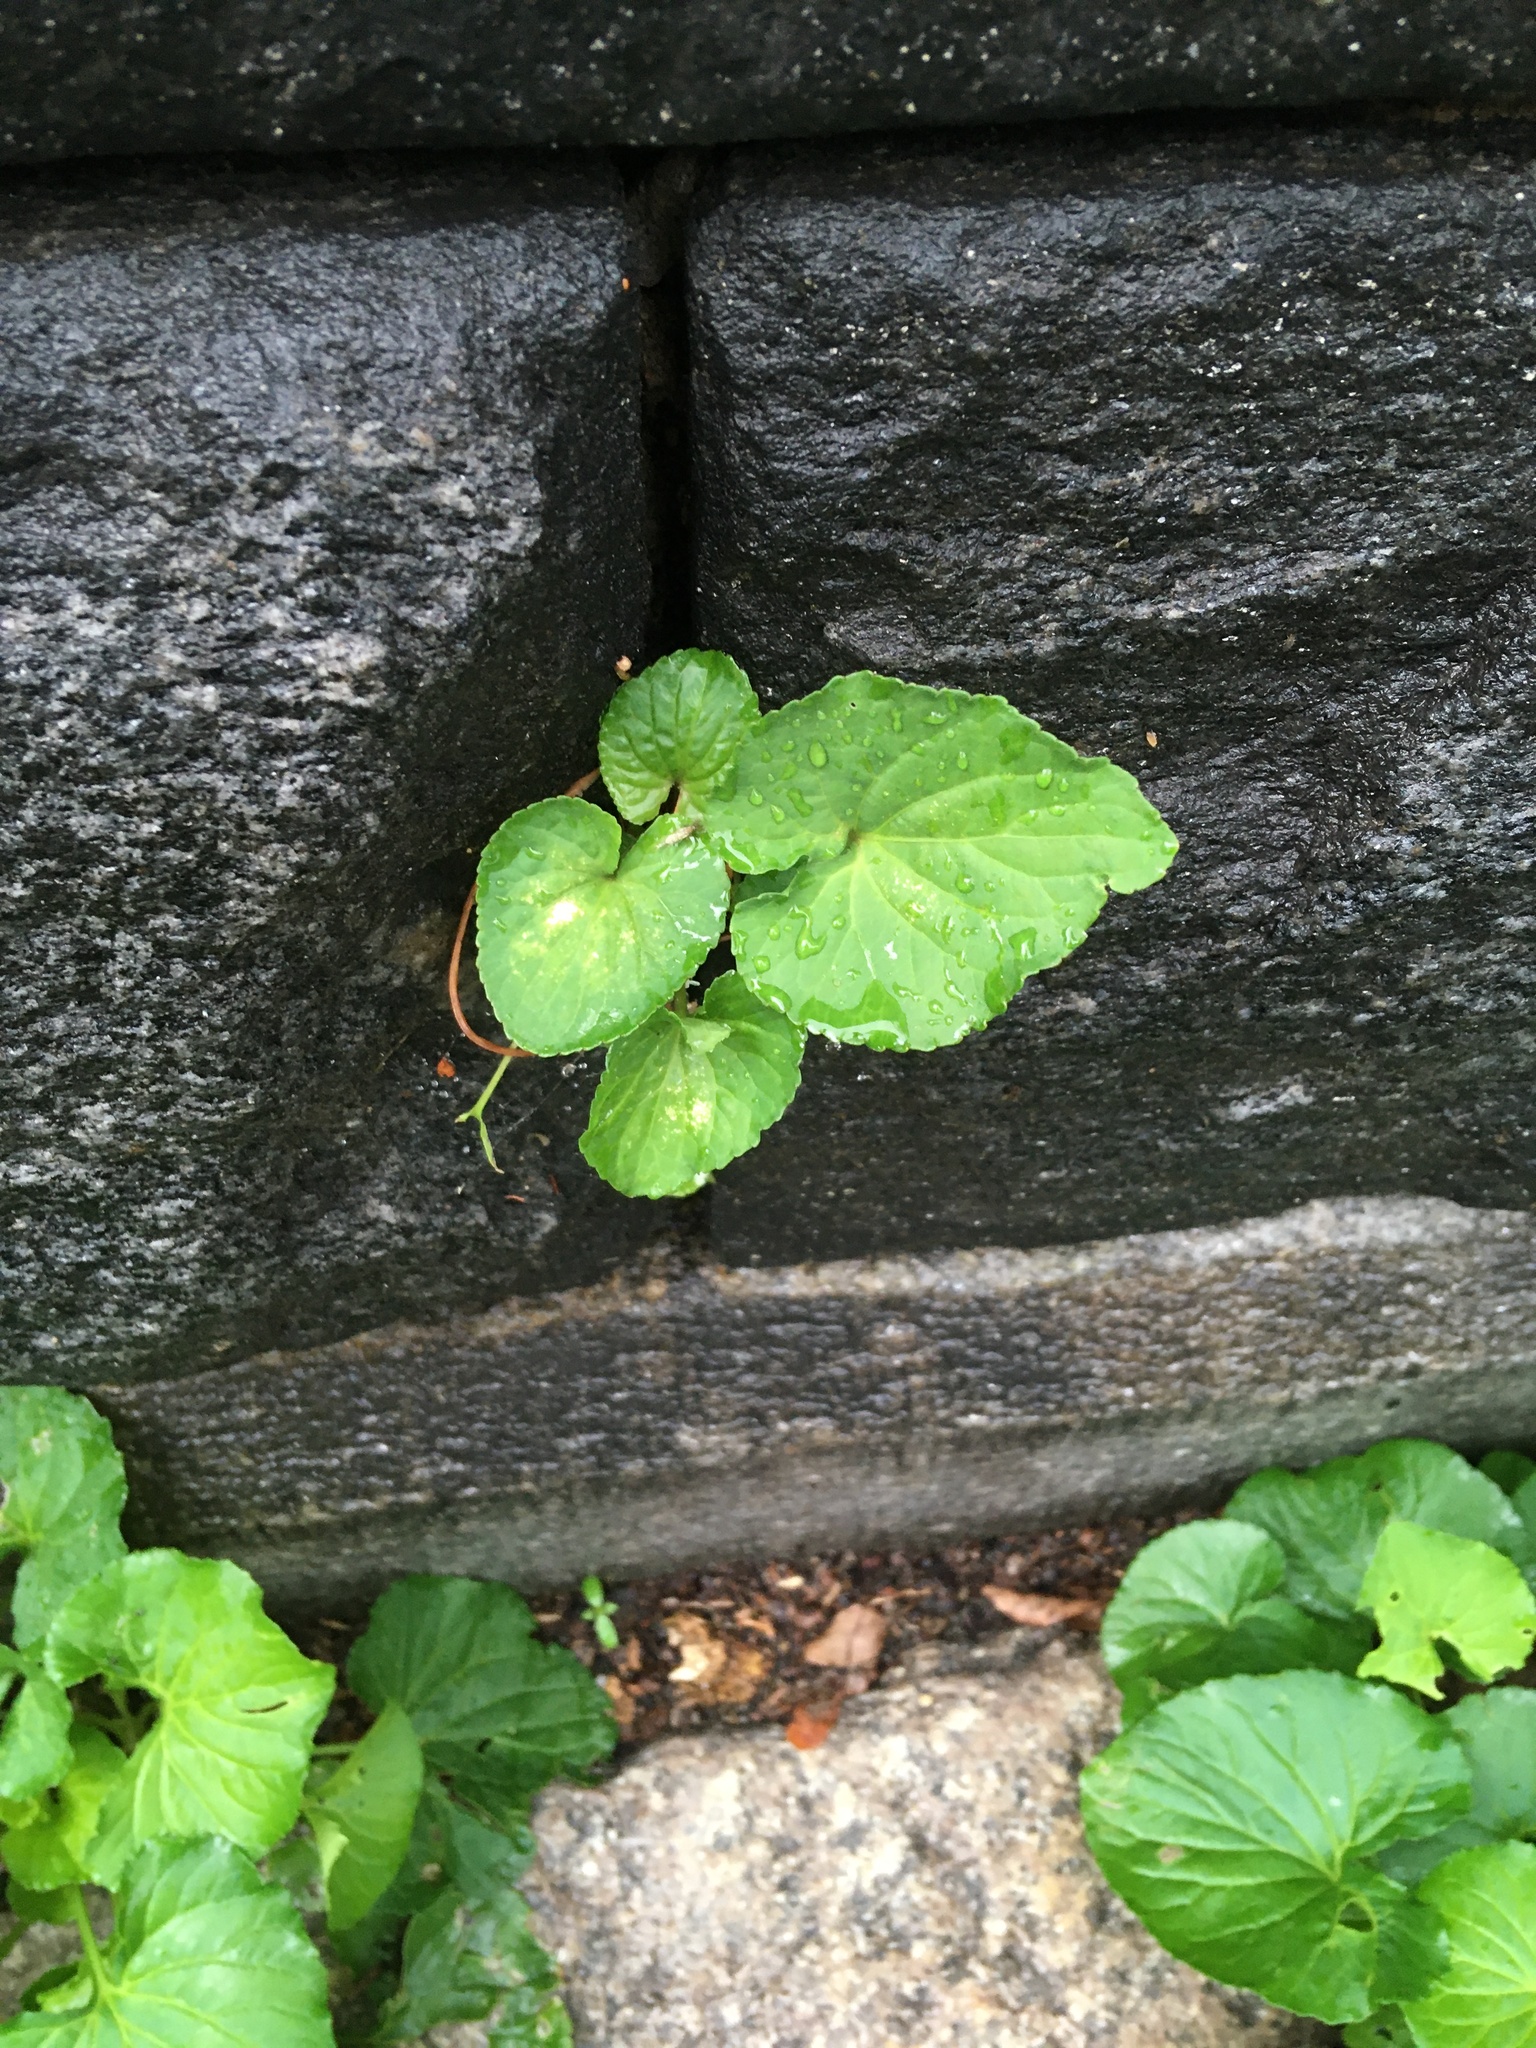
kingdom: Plantae
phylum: Tracheophyta
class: Magnoliopsida
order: Malpighiales
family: Violaceae
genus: Viola
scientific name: Viola sororia
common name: Dooryard violet
